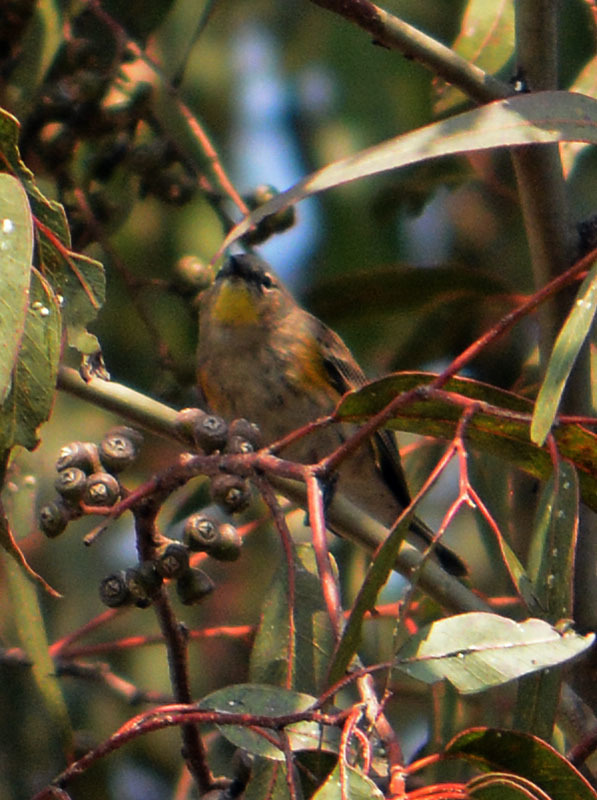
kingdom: Animalia
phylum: Chordata
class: Aves
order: Passeriformes
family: Parulidae
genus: Setophaga
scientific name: Setophaga coronata
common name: Myrtle warbler
